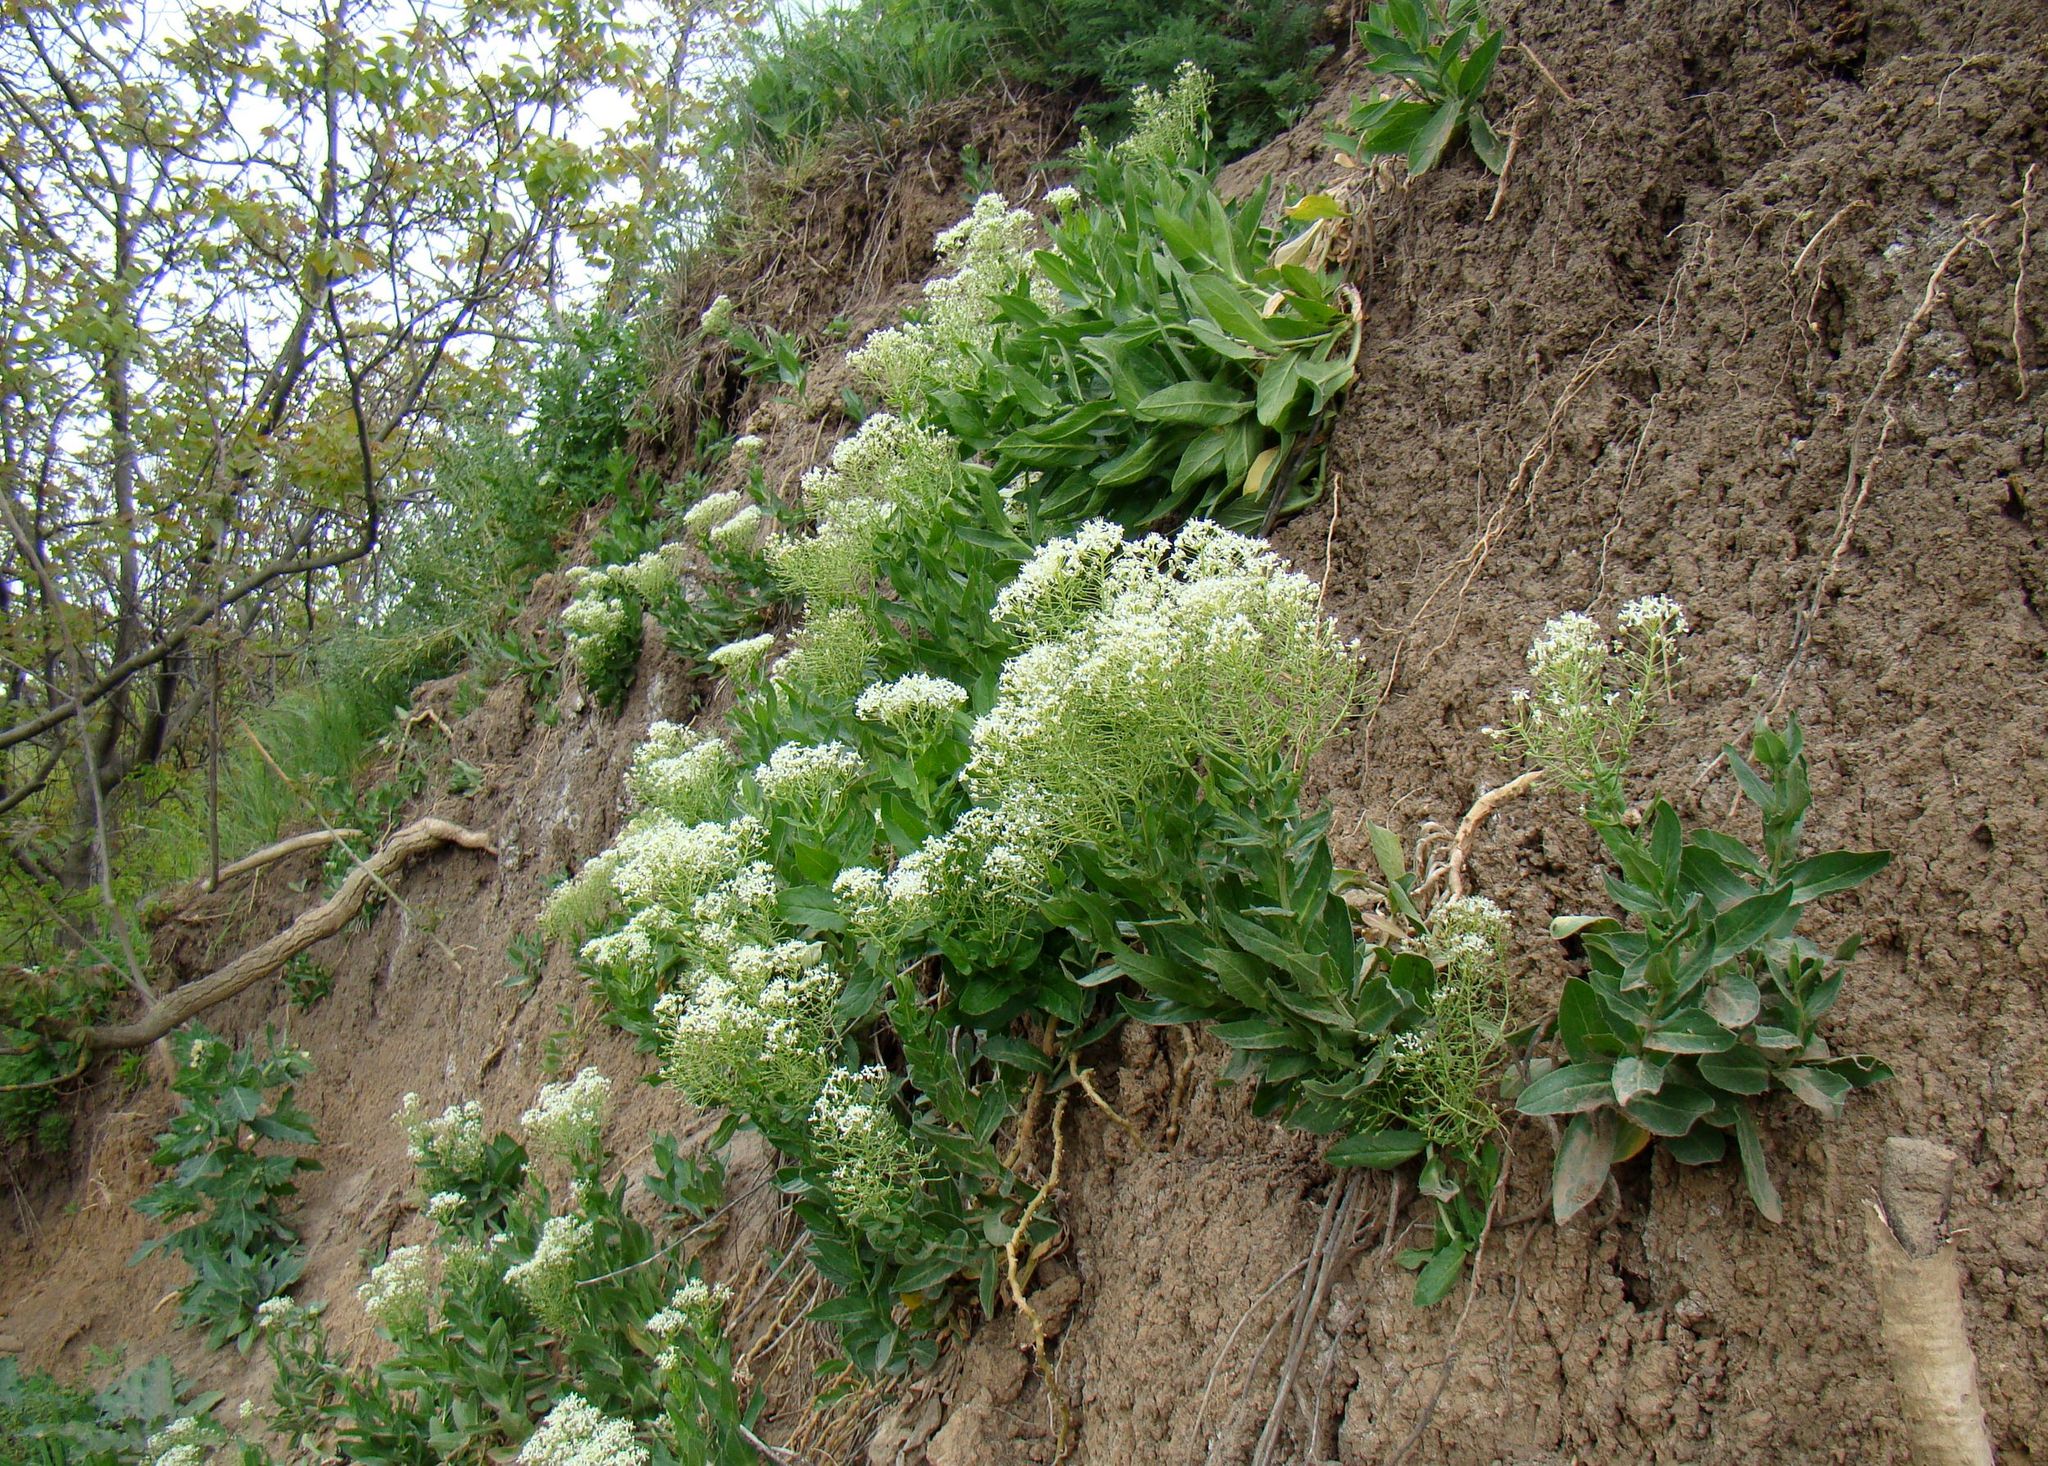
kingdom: Plantae
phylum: Tracheophyta
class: Magnoliopsida
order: Brassicales
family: Brassicaceae
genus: Lepidium
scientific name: Lepidium draba
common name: Hoary cress
